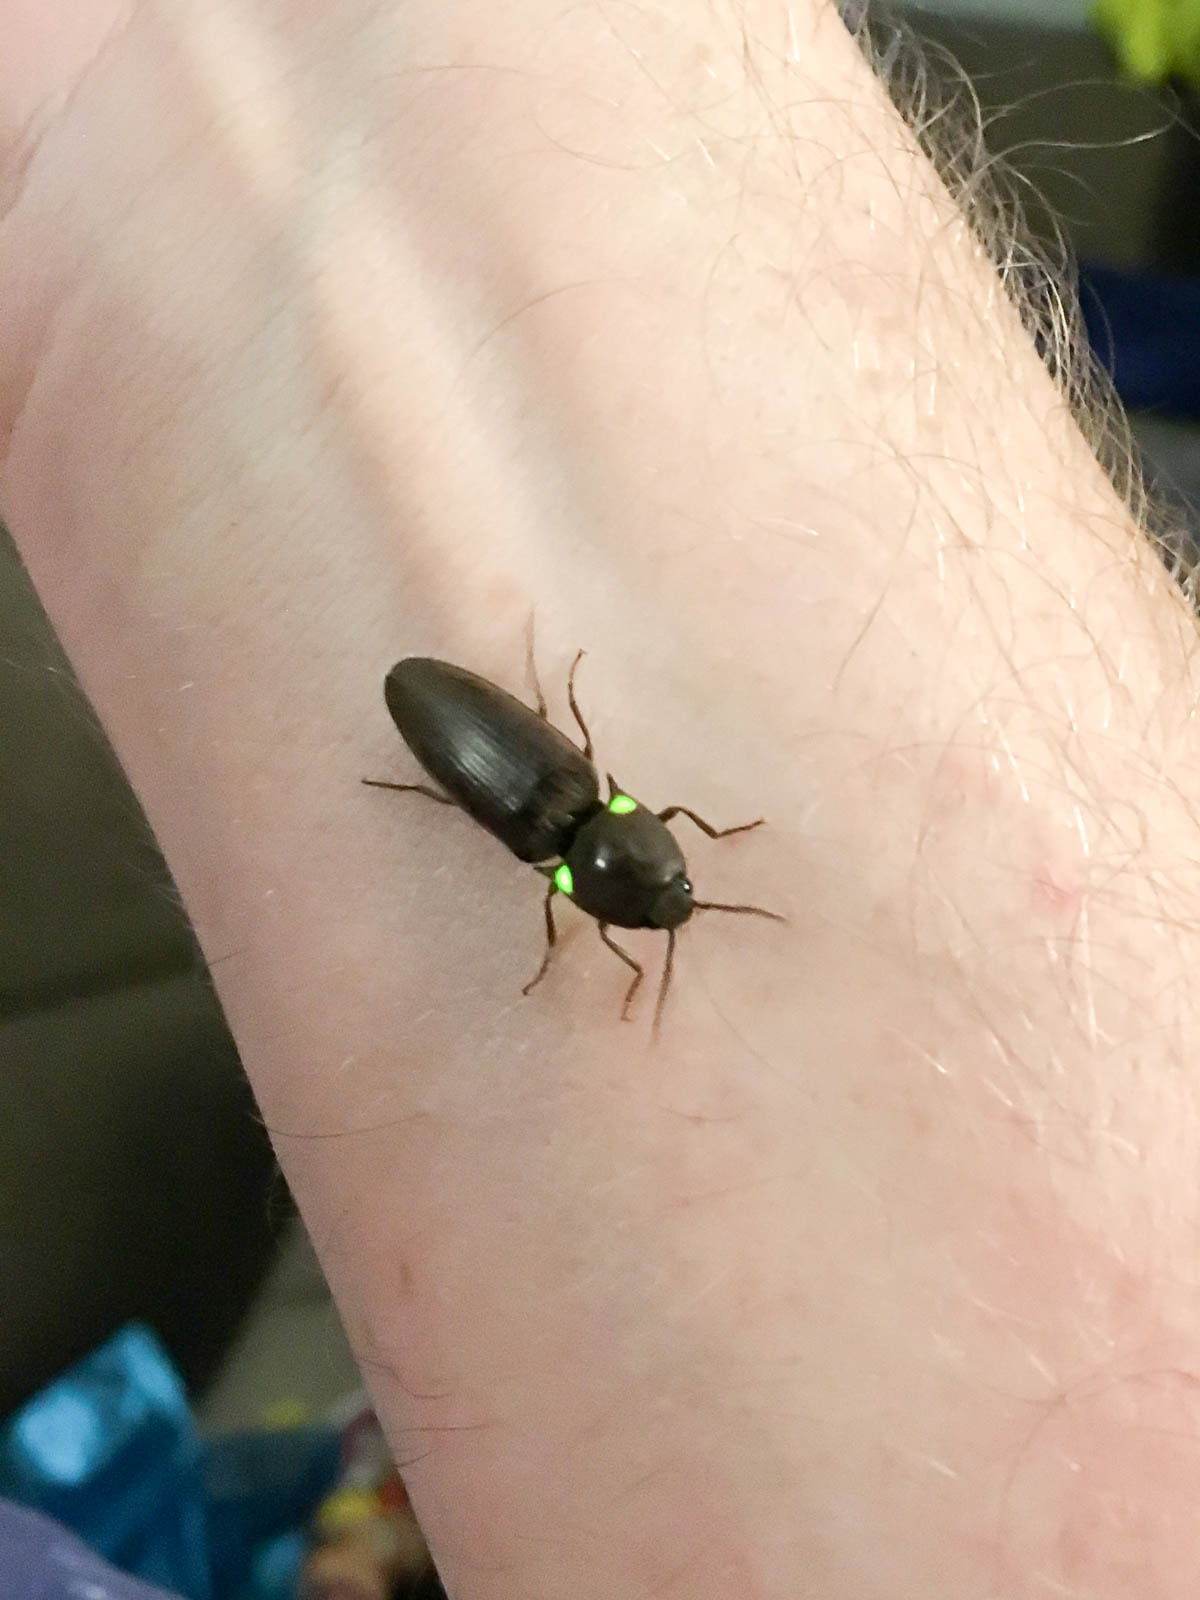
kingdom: Animalia
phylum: Arthropoda
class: Insecta
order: Coleoptera
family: Elateridae
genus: Deilelater
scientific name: Deilelater
